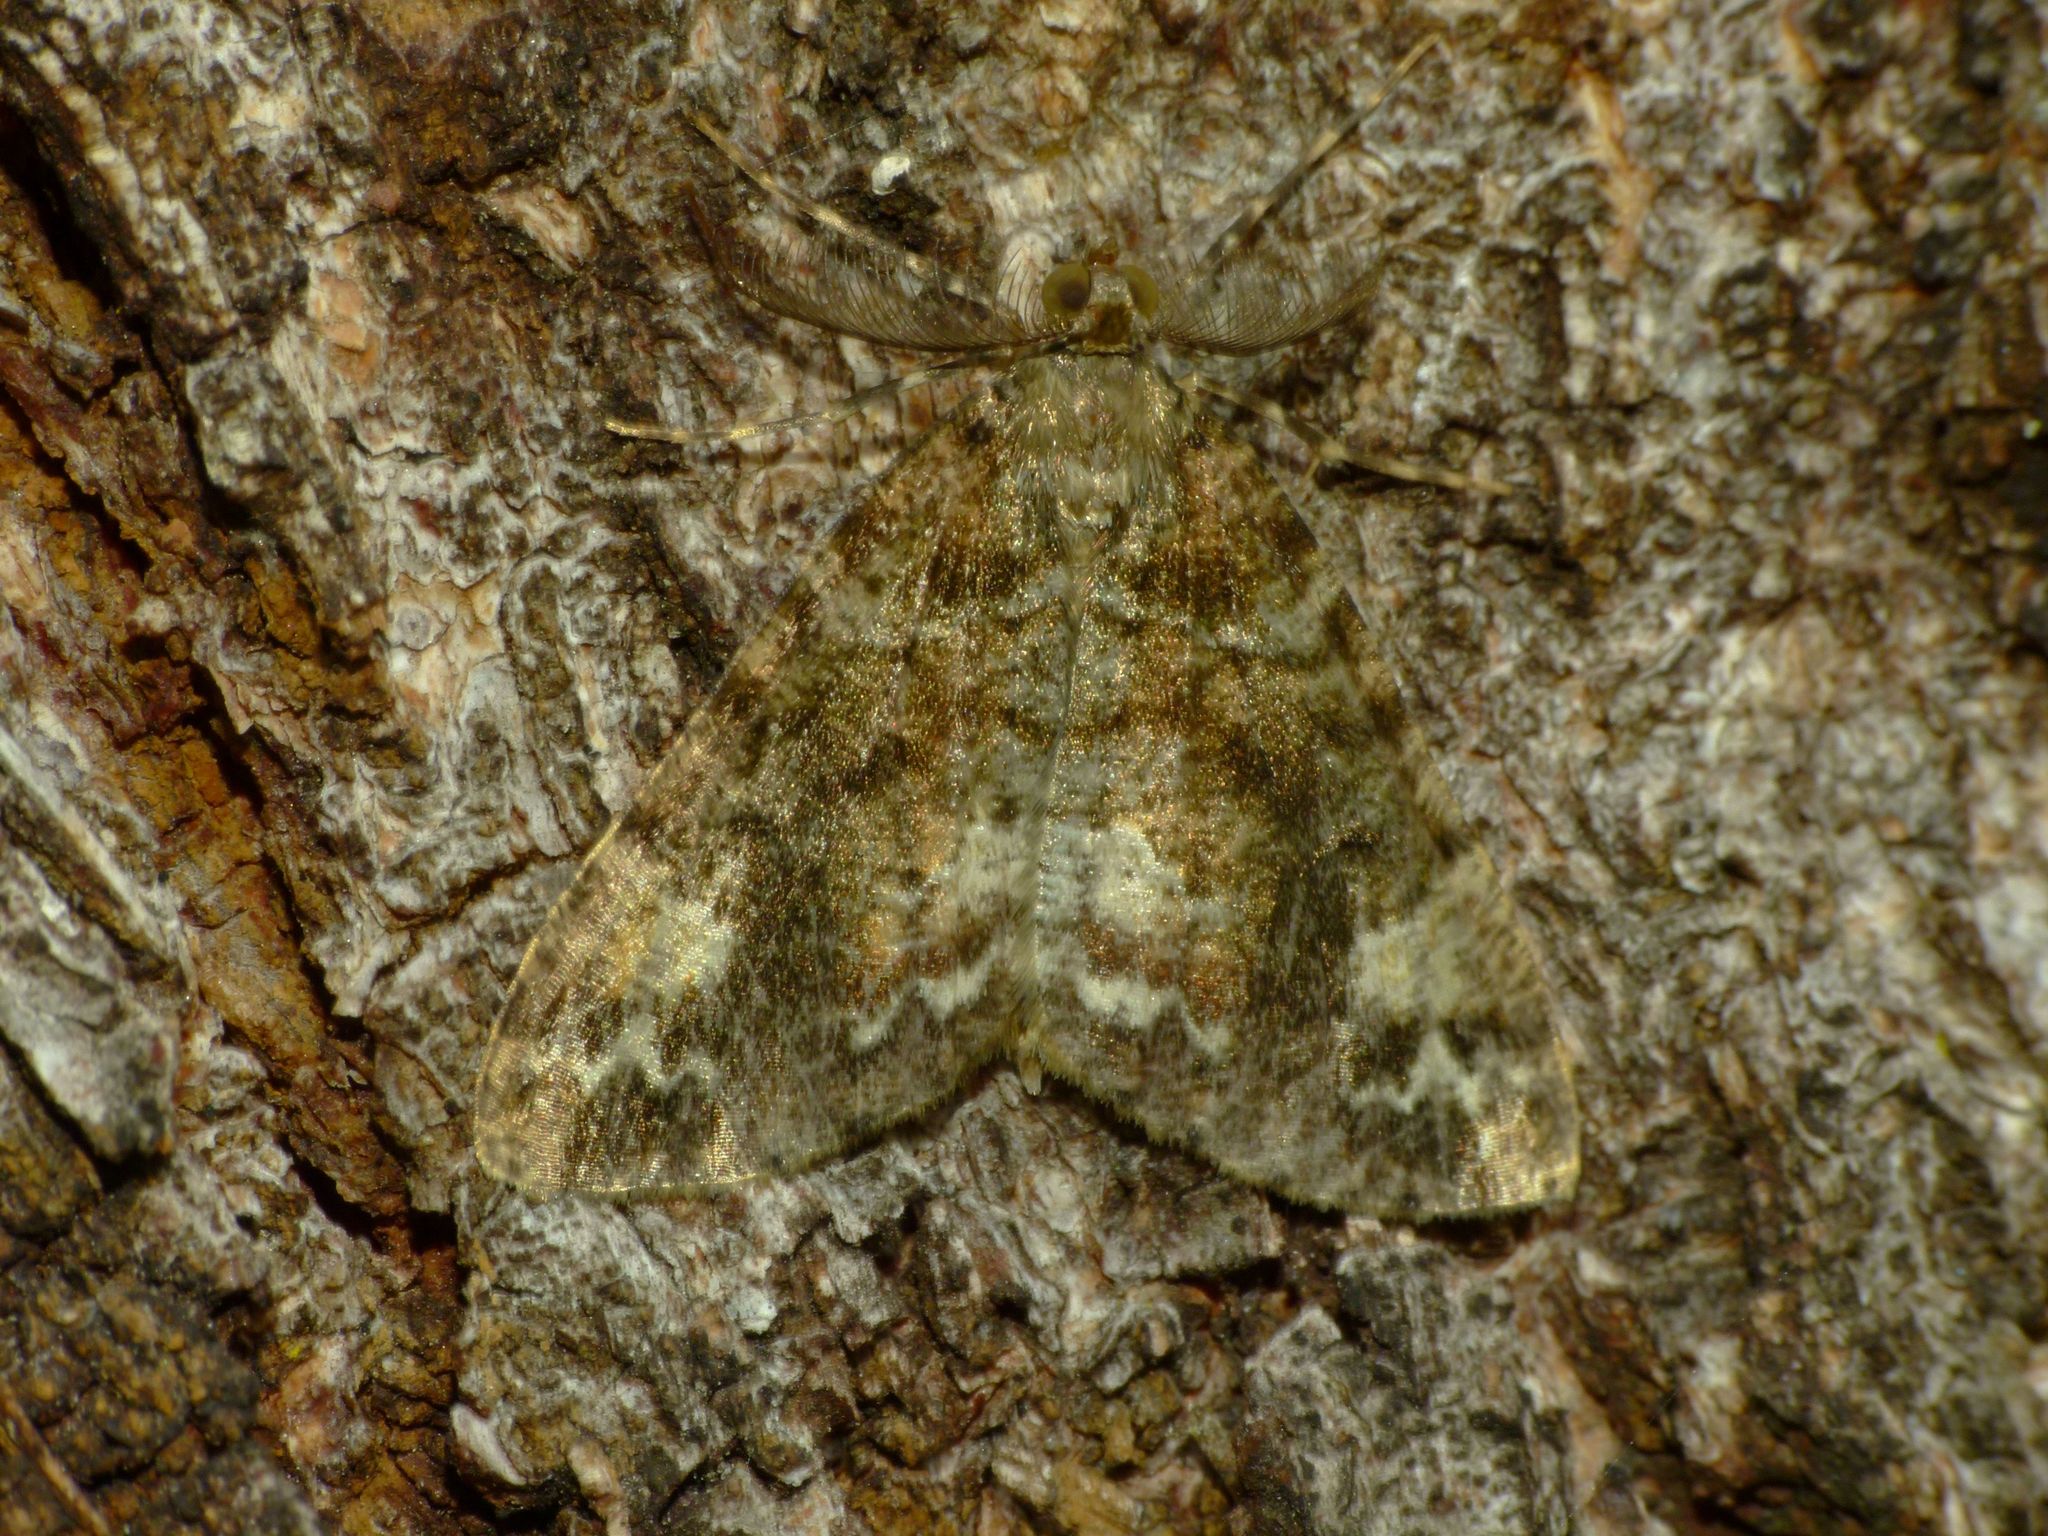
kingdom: Animalia
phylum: Arthropoda
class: Insecta
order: Lepidoptera
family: Geometridae
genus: Pseudocoremia
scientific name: Pseudocoremia productata
